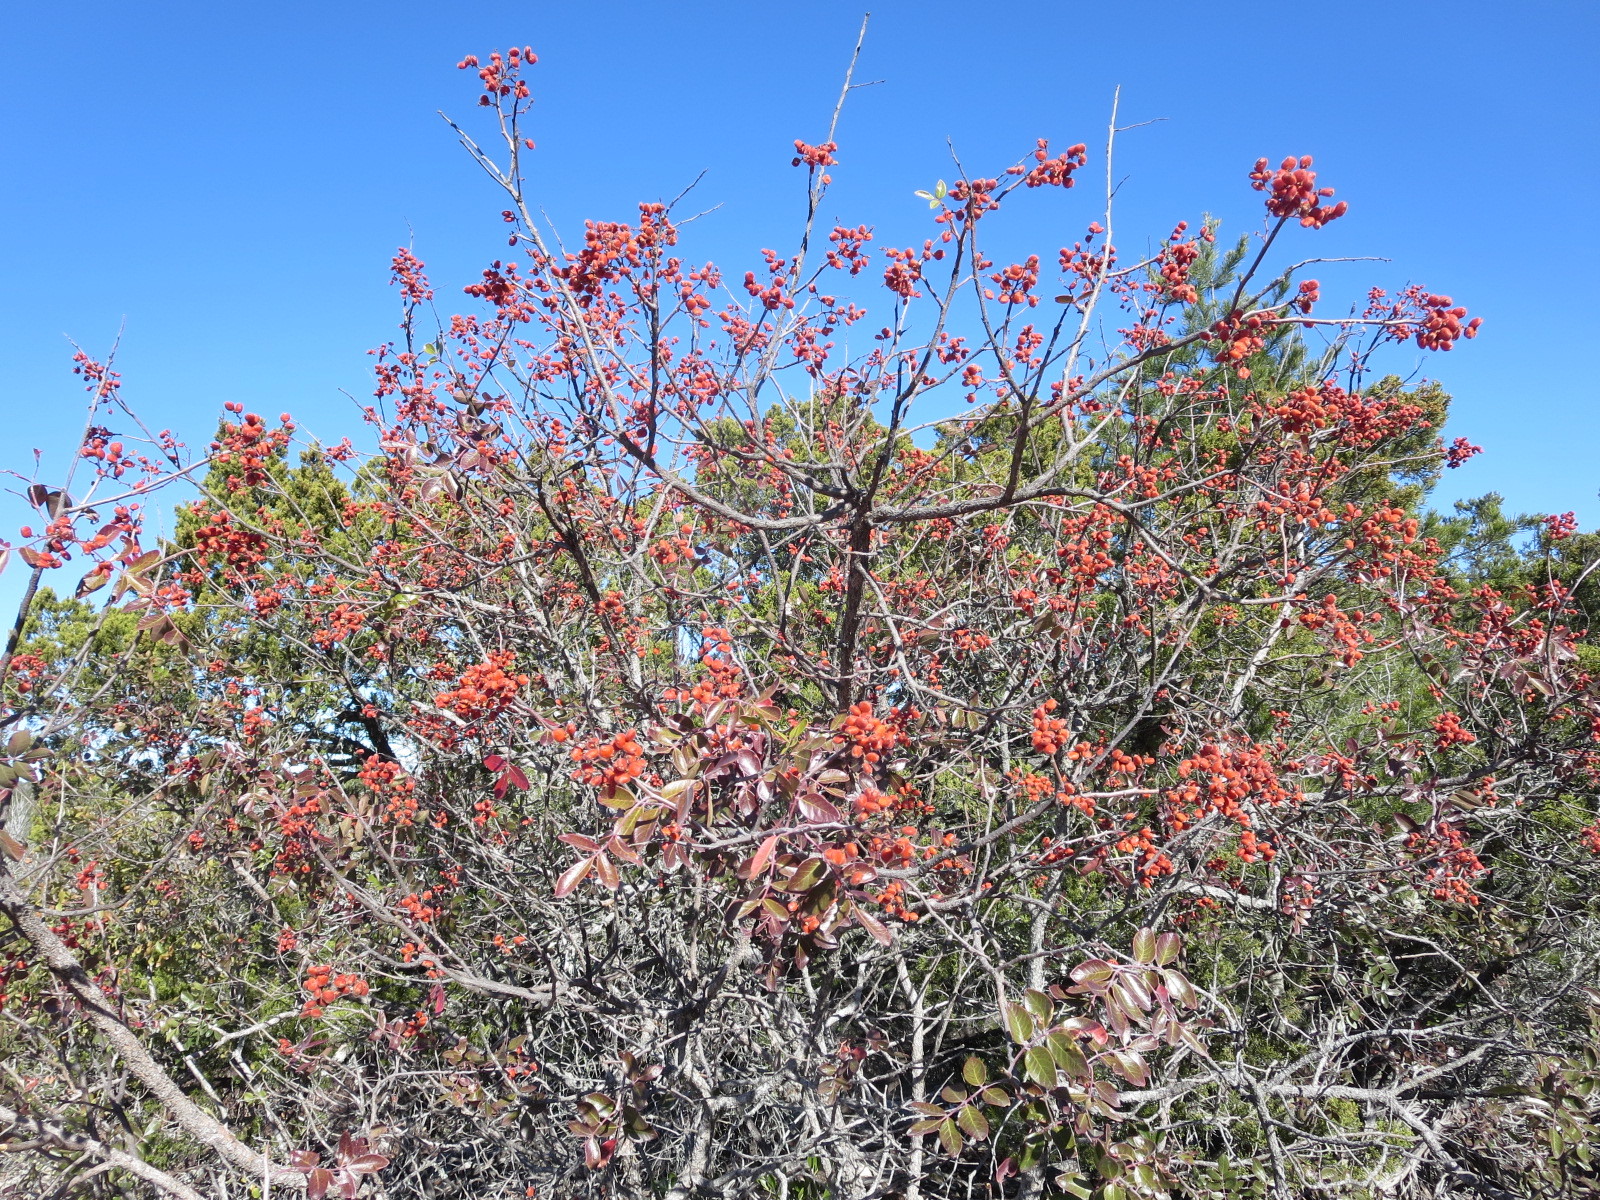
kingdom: Plantae
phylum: Tracheophyta
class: Magnoliopsida
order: Sapindales
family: Anacardiaceae
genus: Rhus
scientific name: Rhus virens
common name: Evergreen sumac
